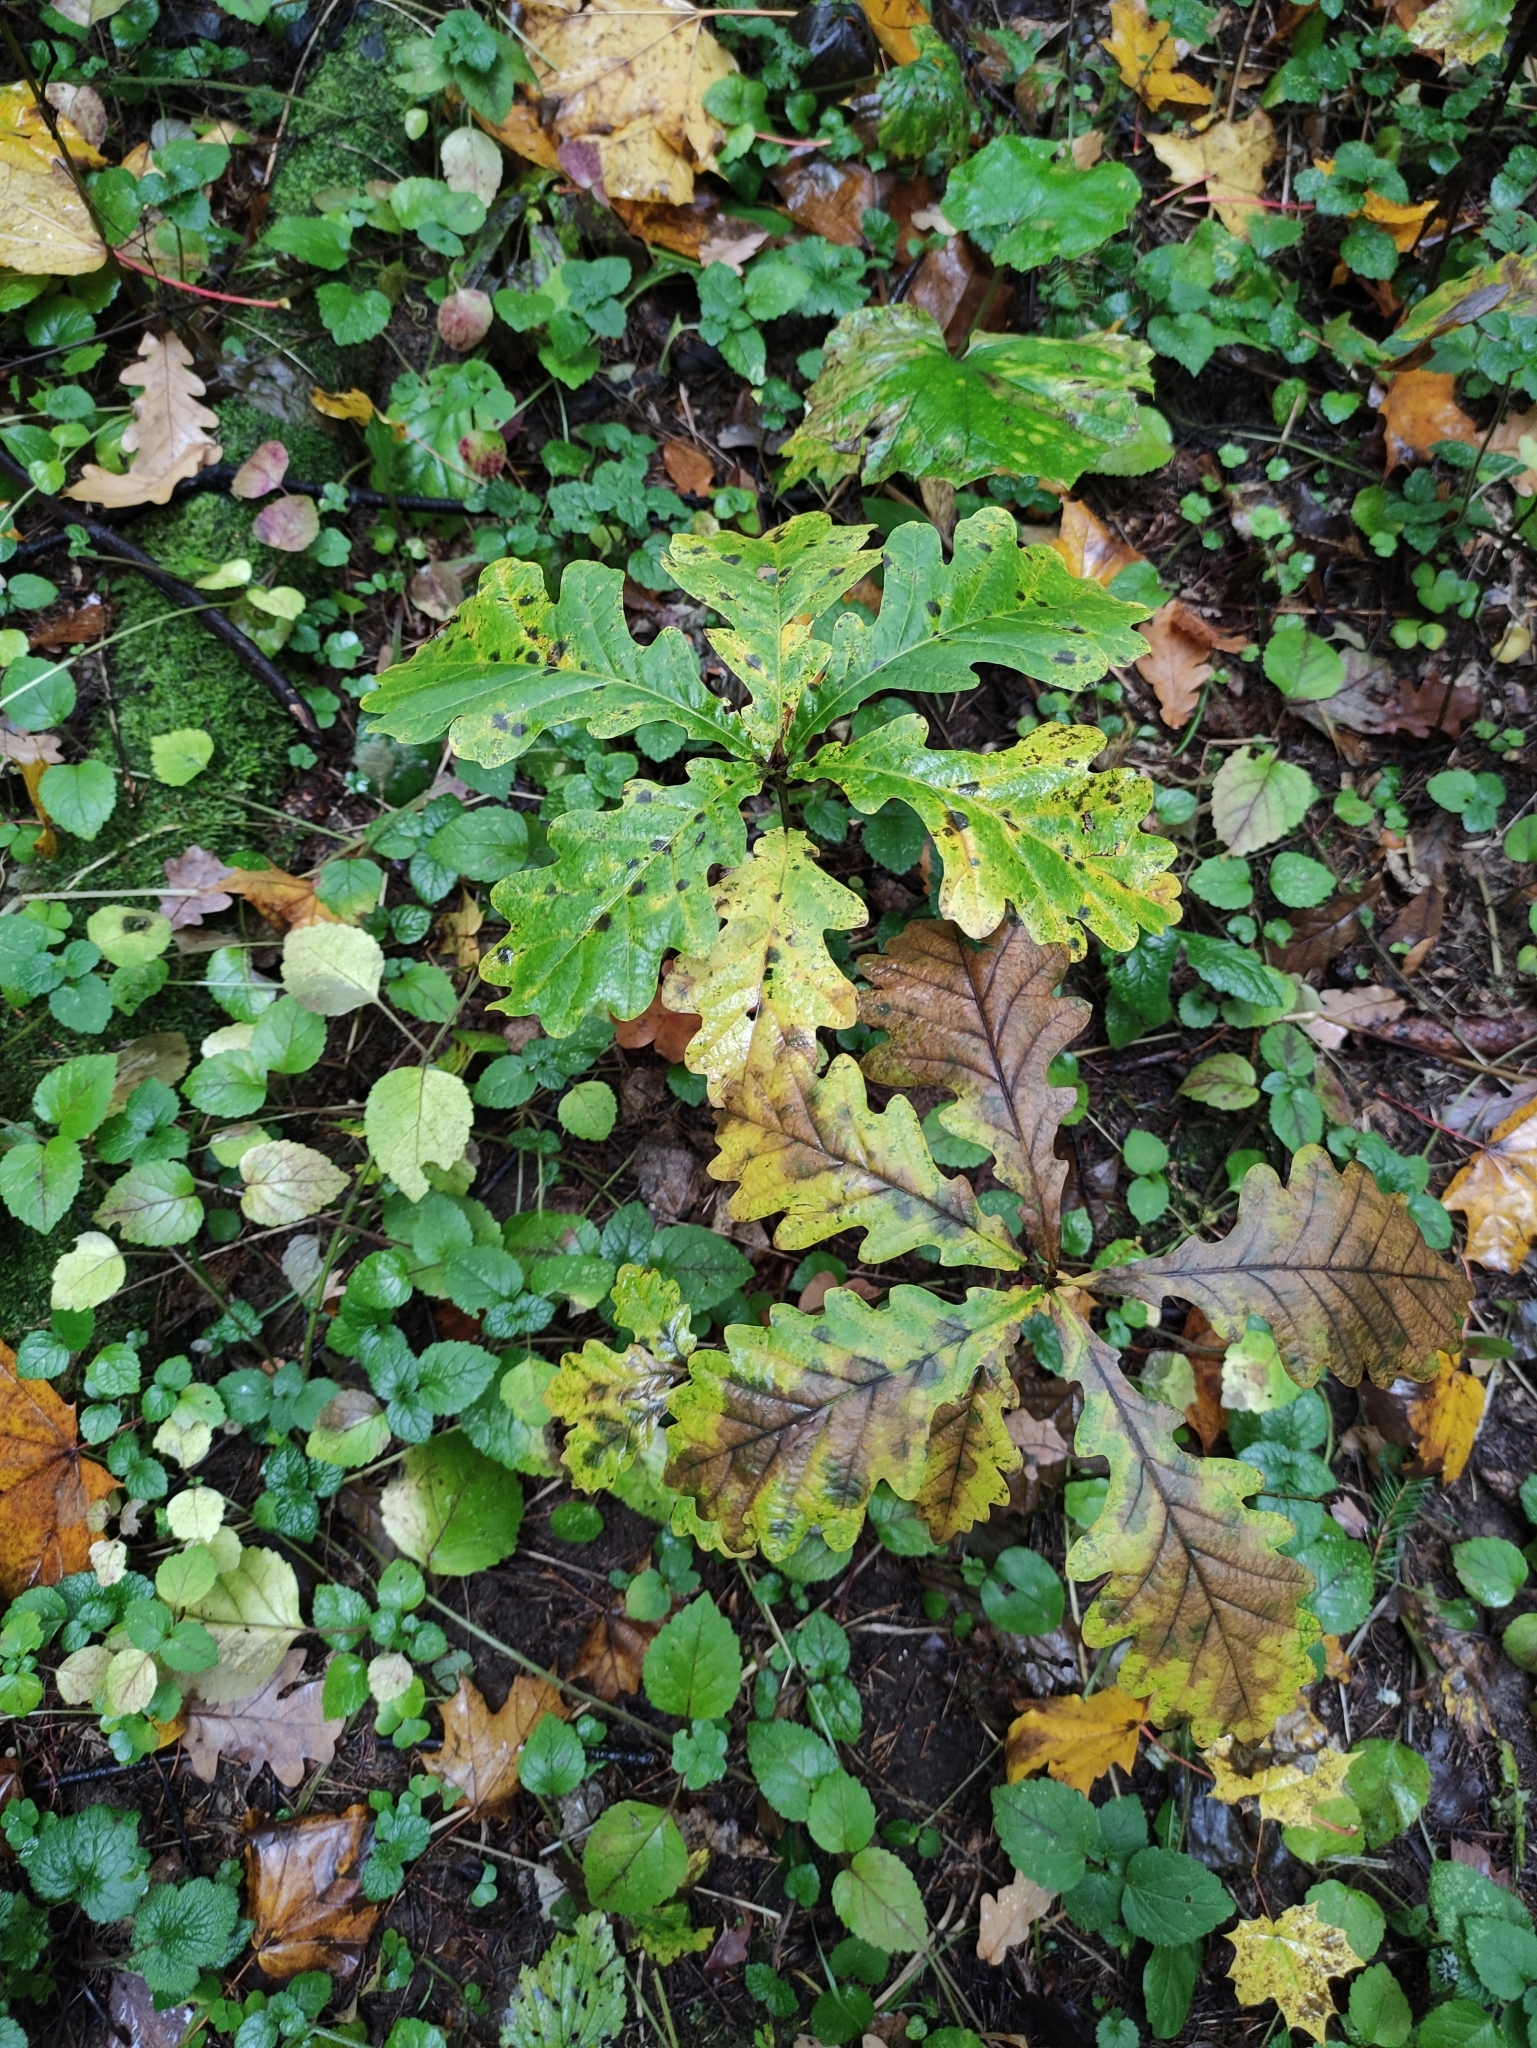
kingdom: Plantae
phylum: Tracheophyta
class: Magnoliopsida
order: Fagales
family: Fagaceae
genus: Quercus
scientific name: Quercus robur
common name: Pedunculate oak
